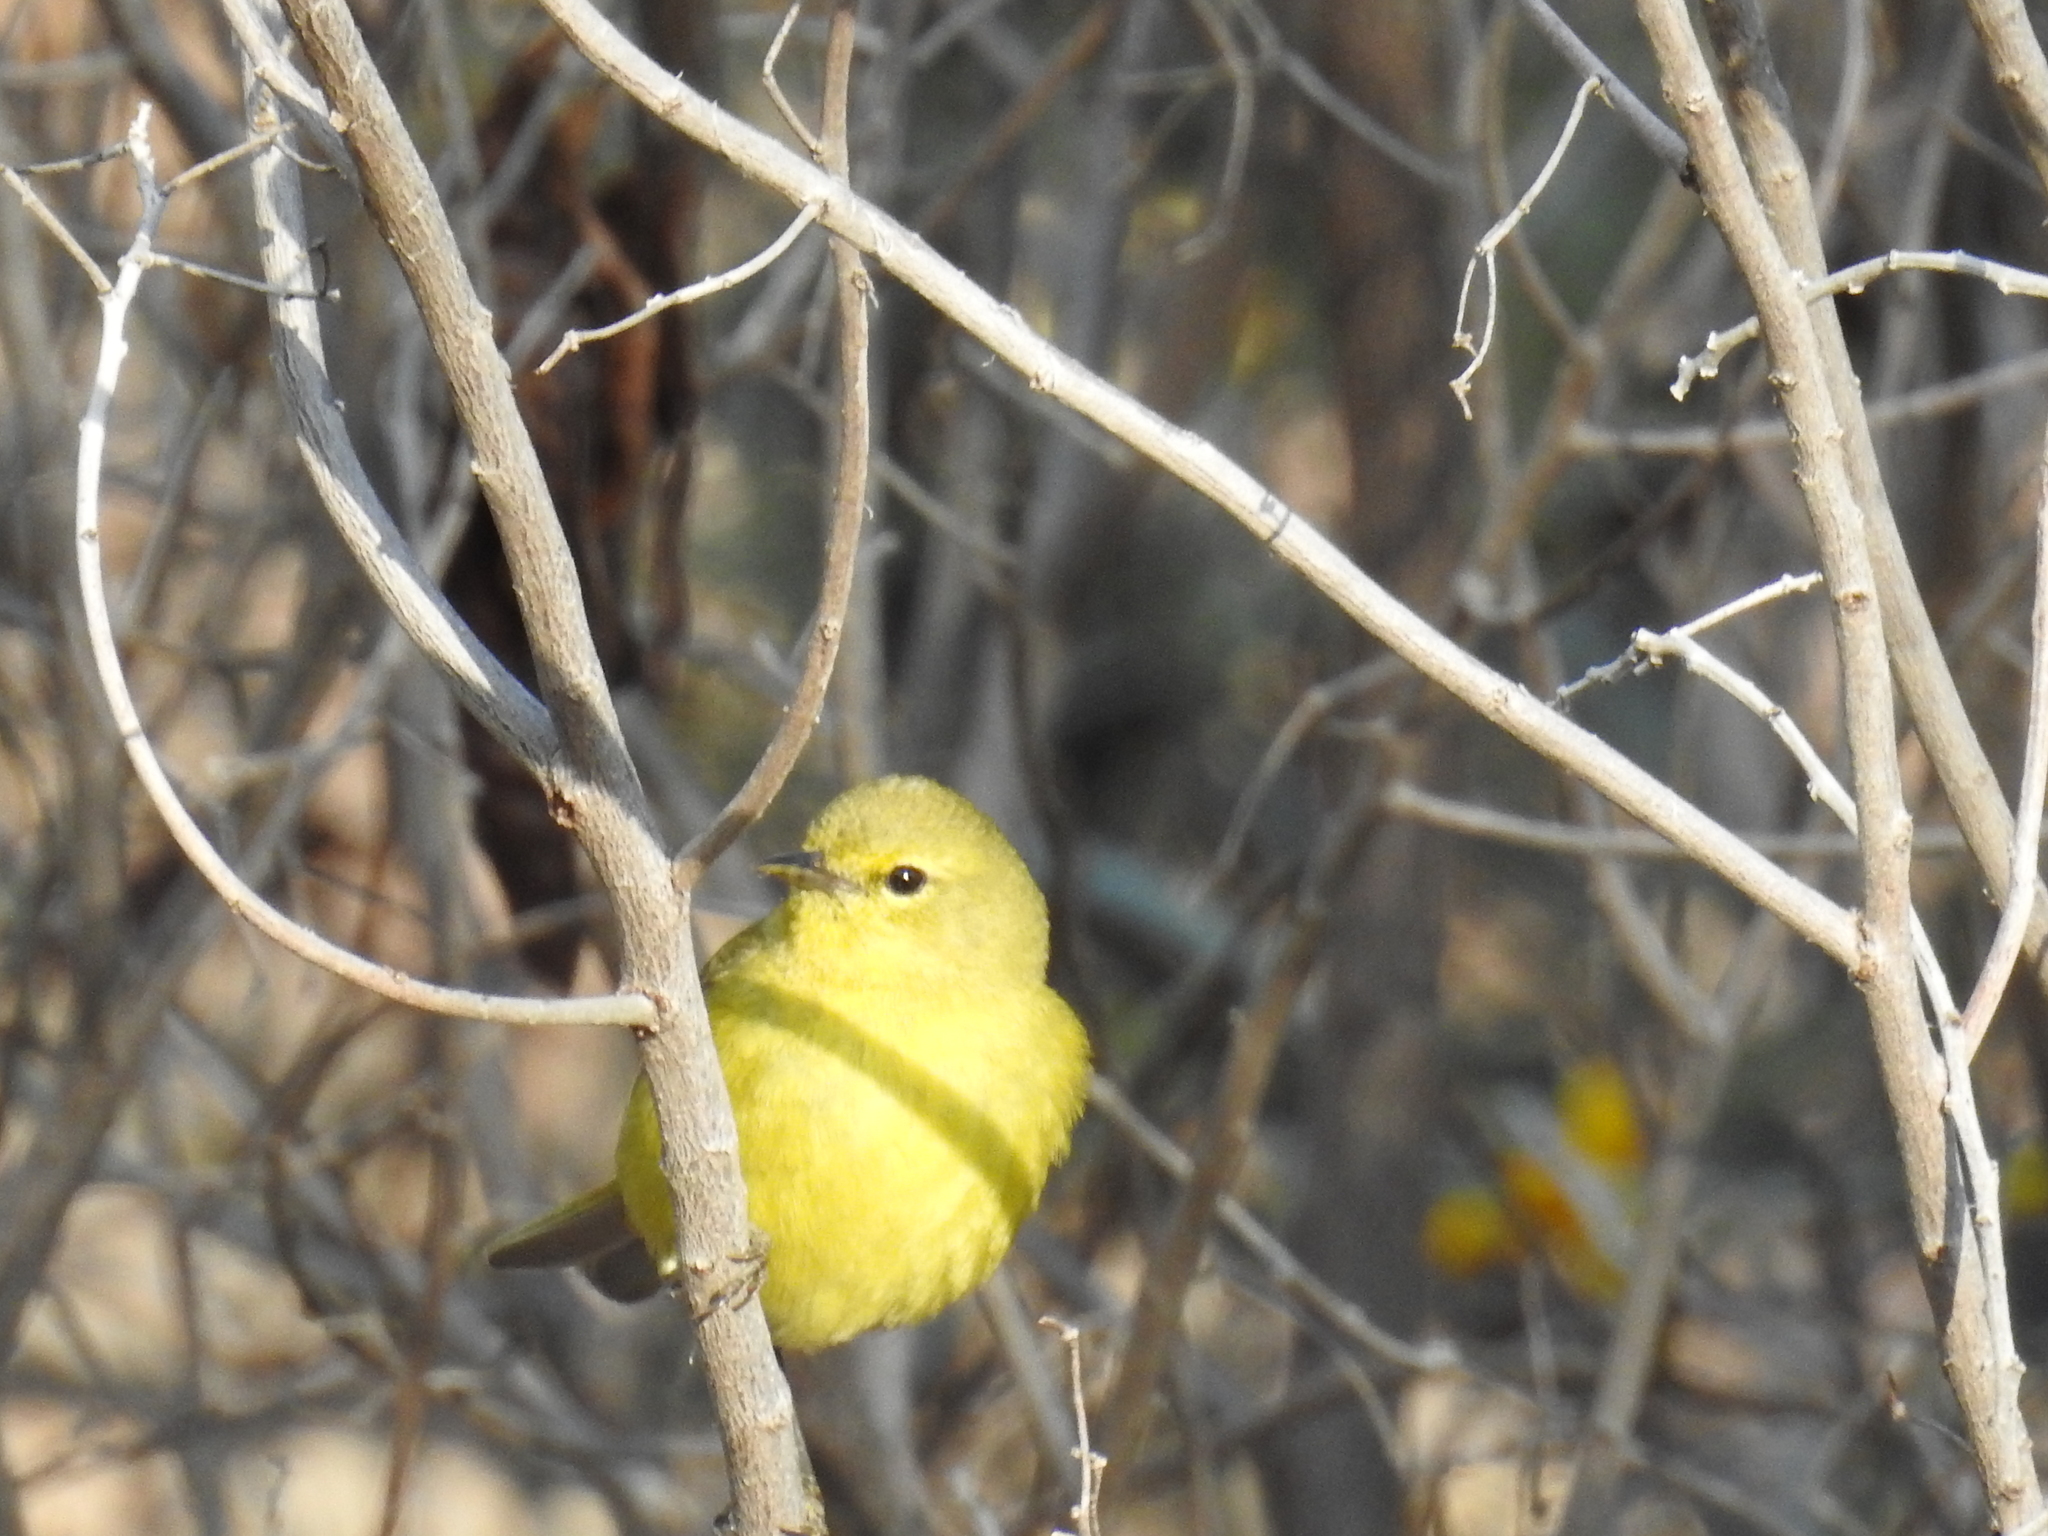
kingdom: Animalia
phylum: Chordata
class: Aves
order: Passeriformes
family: Parulidae
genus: Leiothlypis
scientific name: Leiothlypis celata
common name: Orange-crowned warbler
